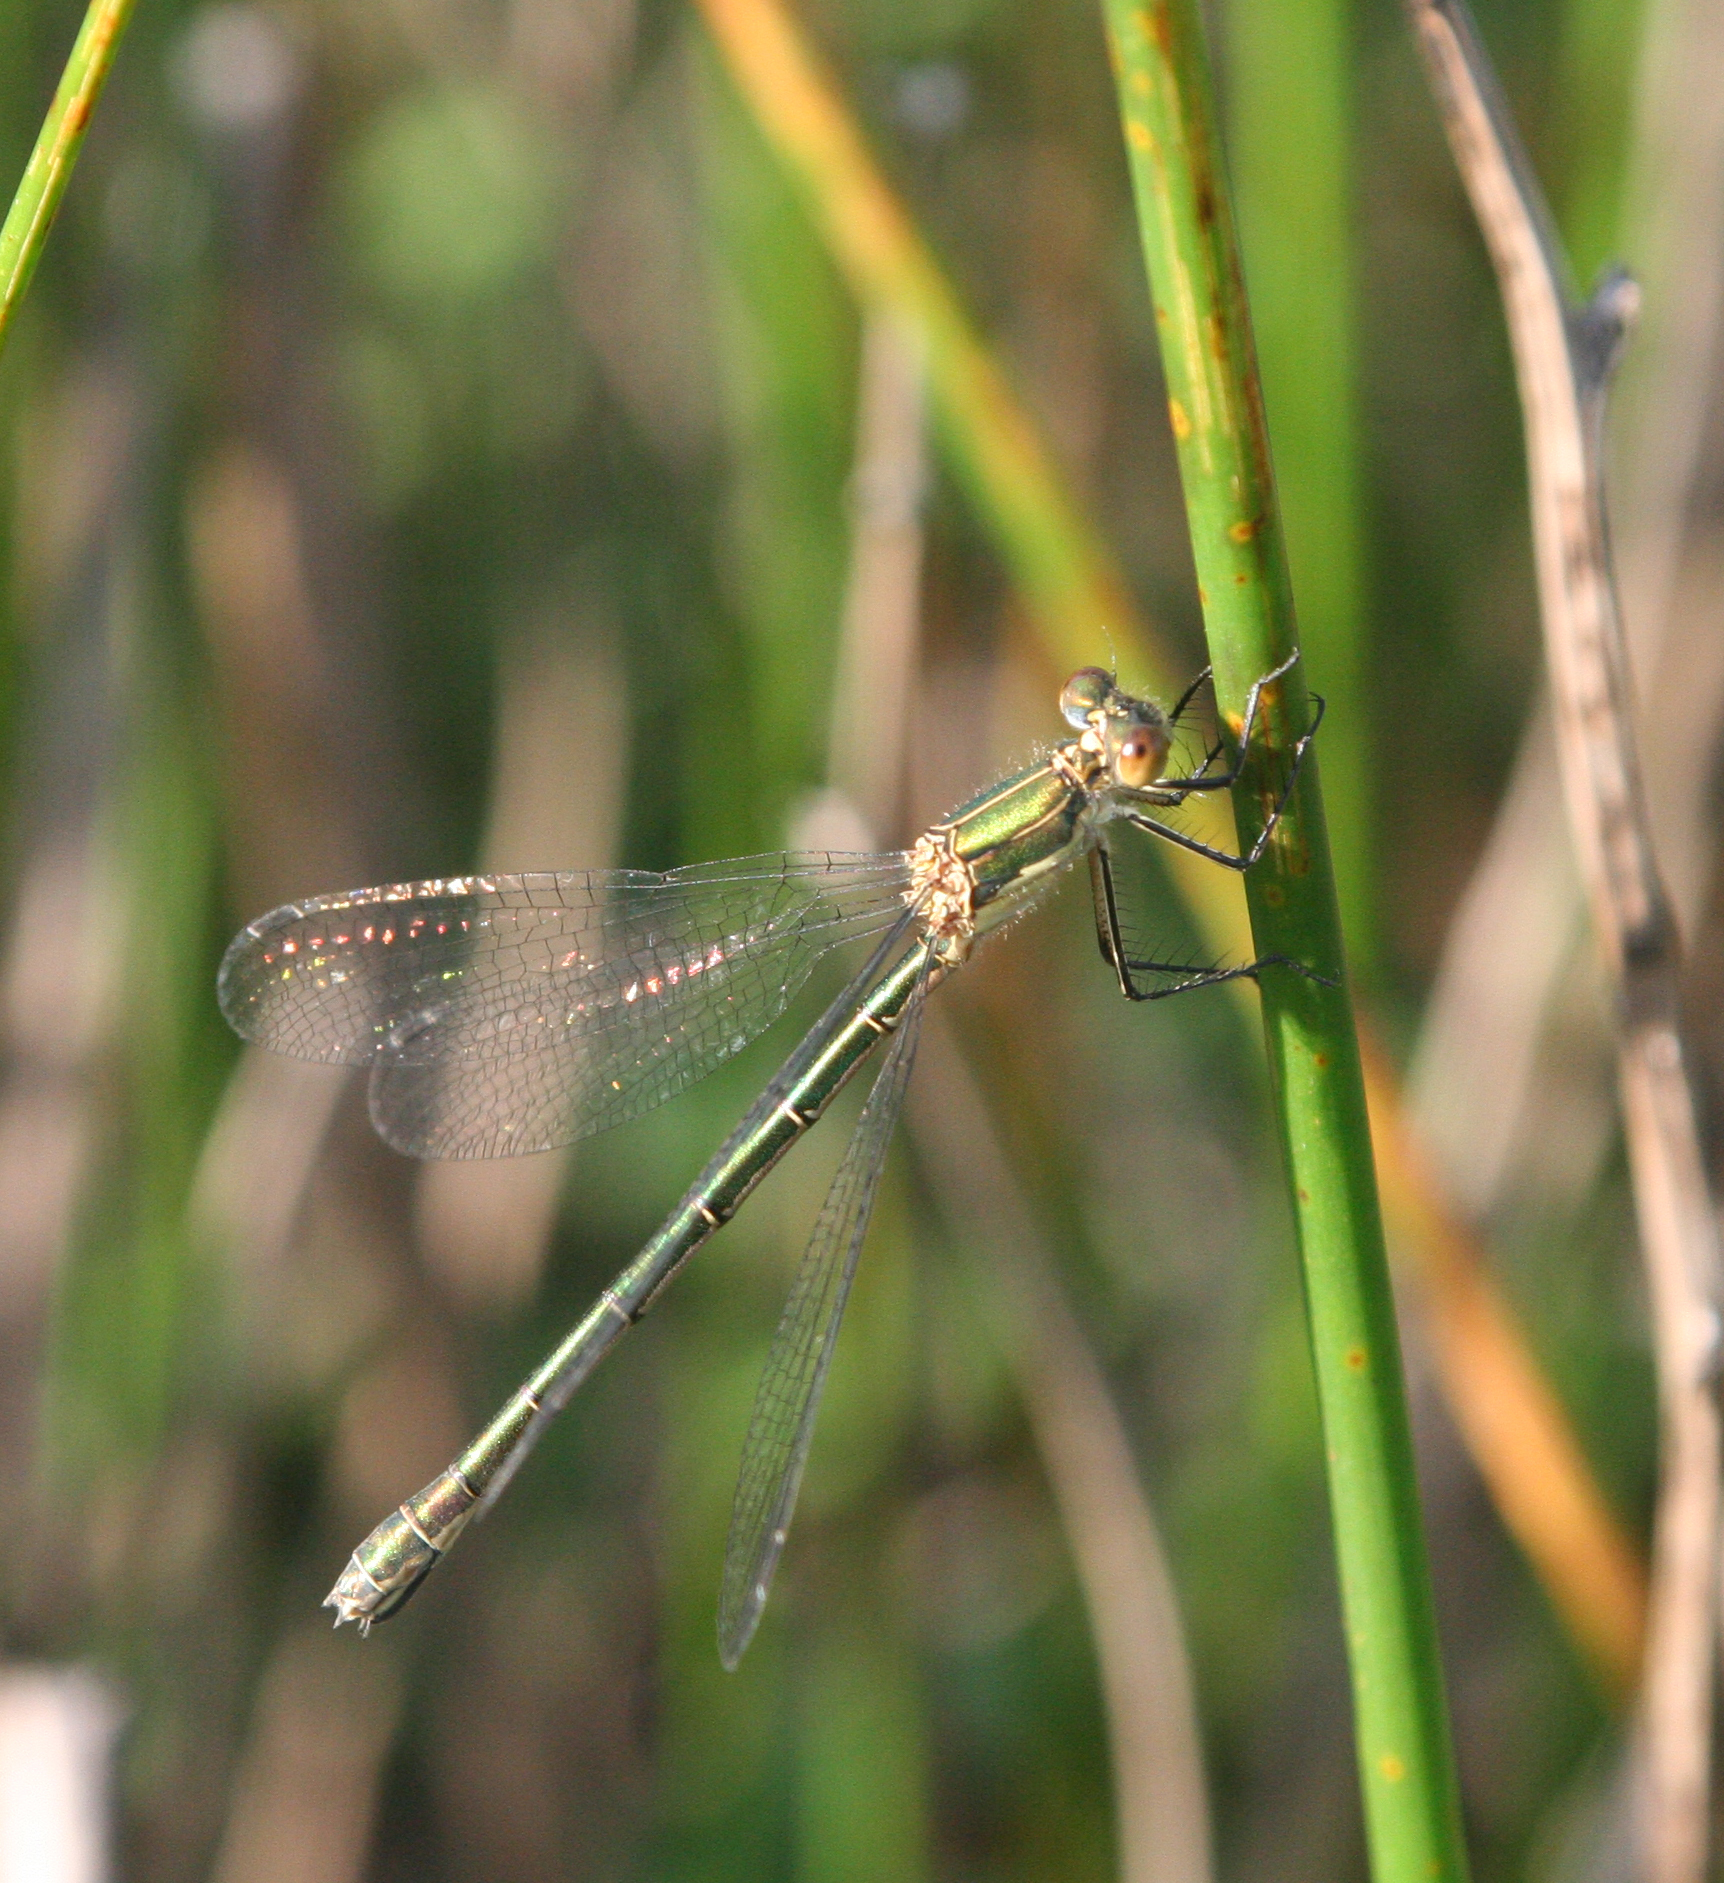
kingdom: Animalia
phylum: Arthropoda
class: Insecta
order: Odonata
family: Lestidae
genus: Lestes
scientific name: Lestes dryas
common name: Scarce emerald damselfly
